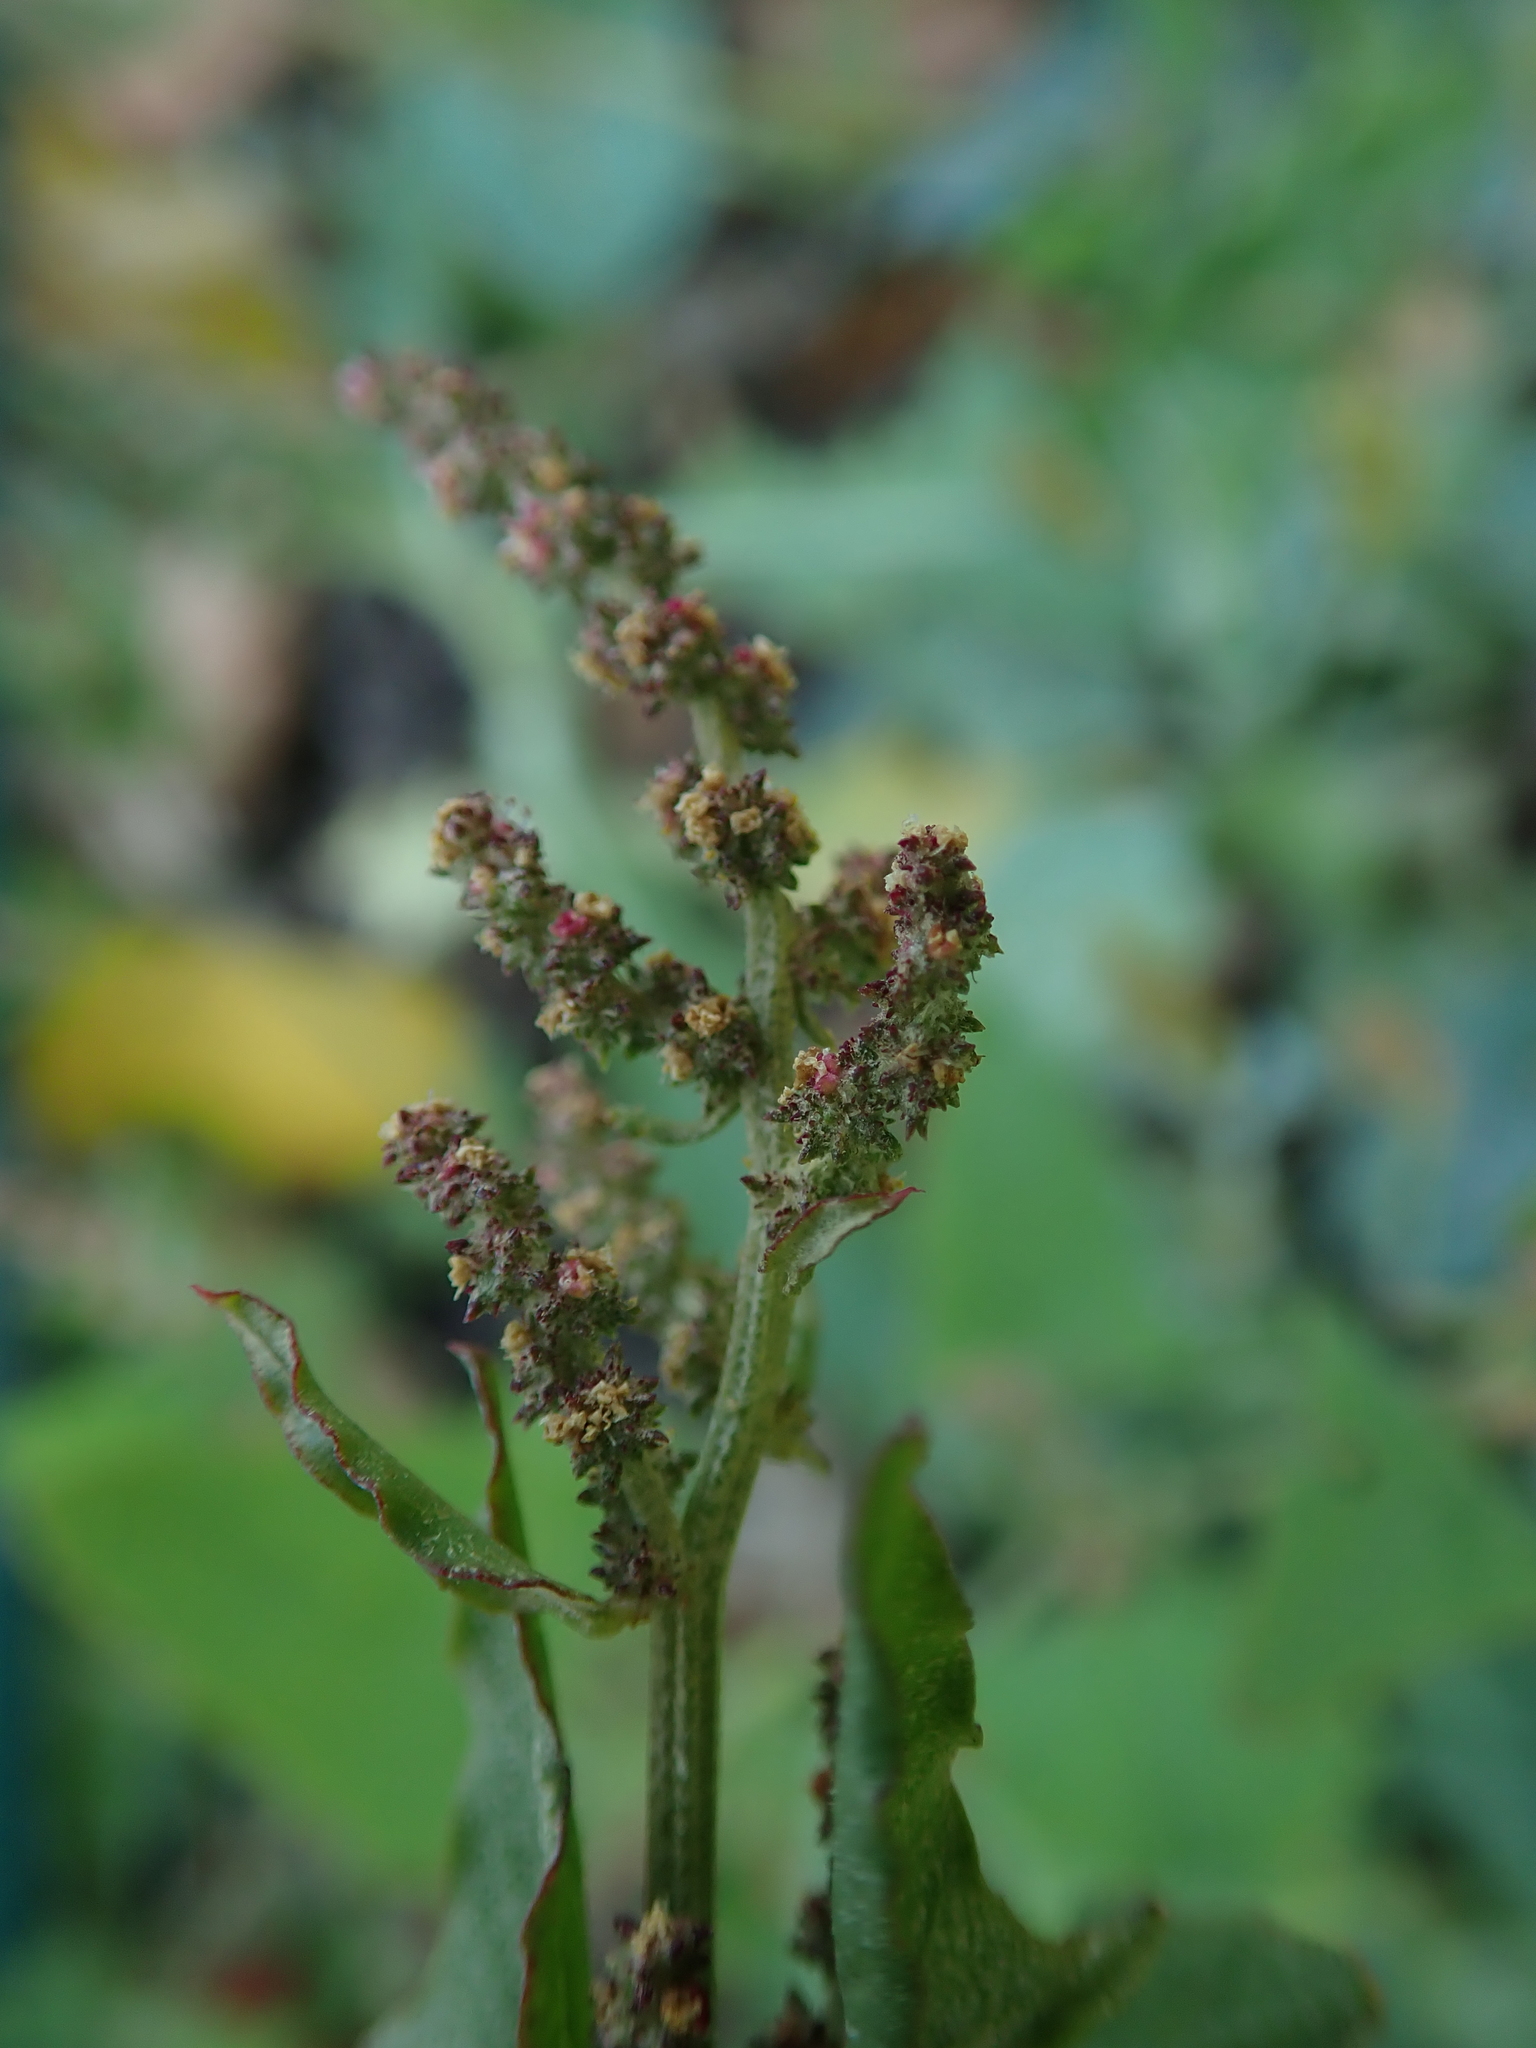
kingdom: Plantae
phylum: Tracheophyta
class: Magnoliopsida
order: Caryophyllales
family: Amaranthaceae
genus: Atriplex
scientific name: Atriplex prostrata
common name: Spear-leaved orache
